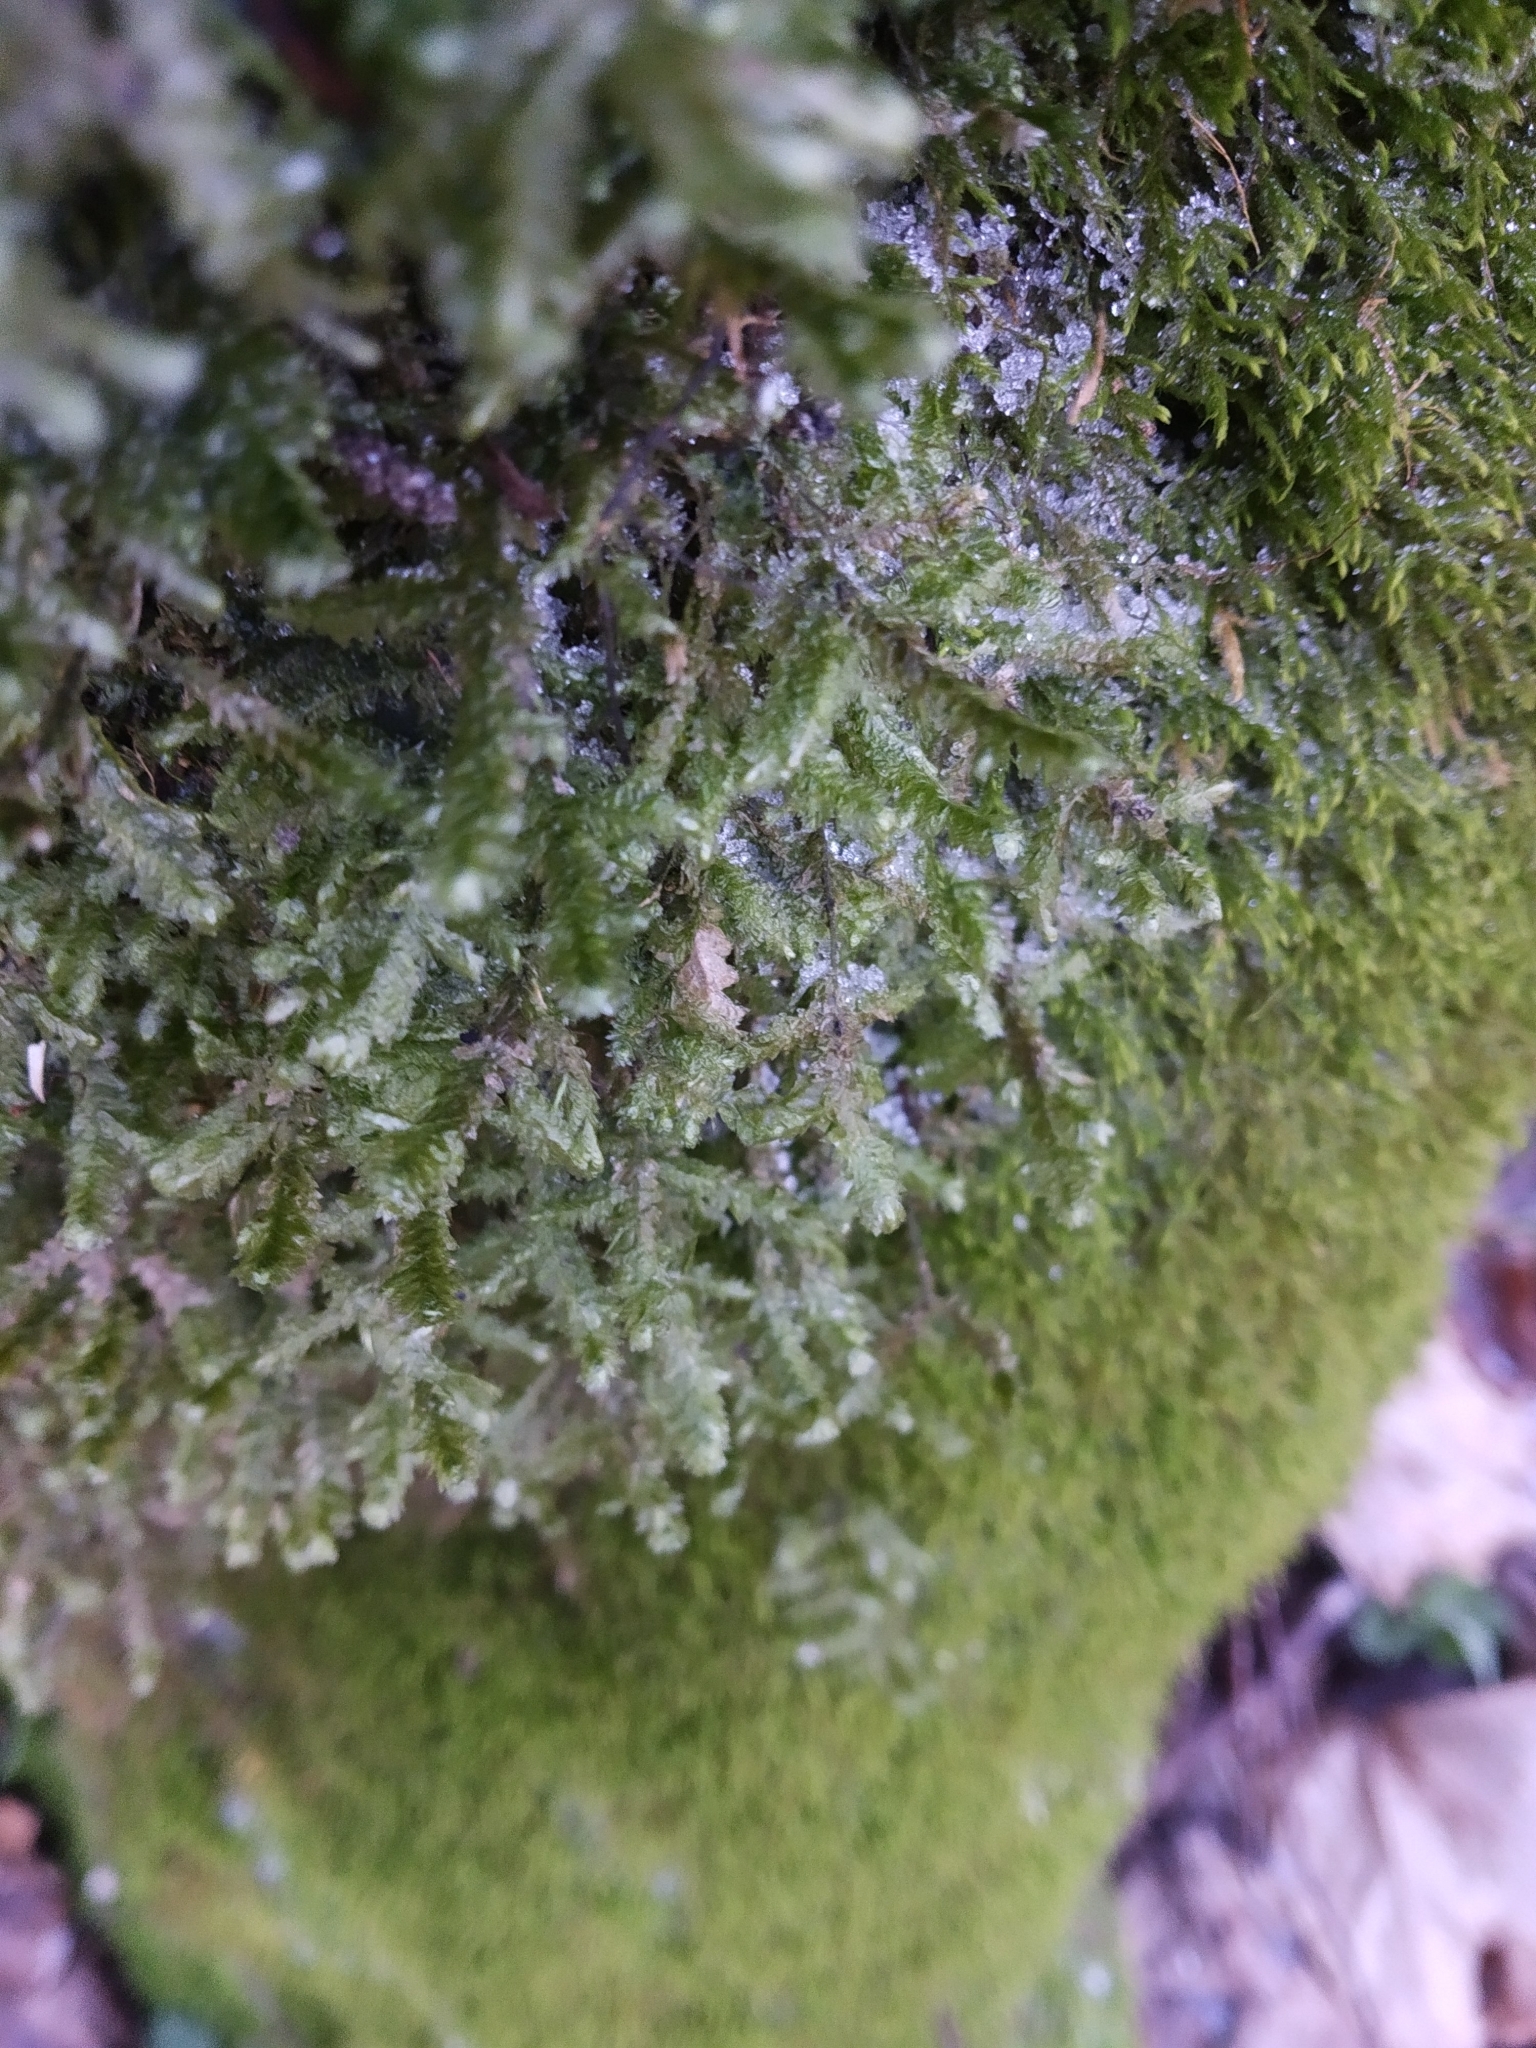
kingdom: Plantae
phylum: Bryophyta
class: Bryopsida
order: Hypnales
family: Neckeraceae
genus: Alleniella
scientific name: Alleniella complanata
